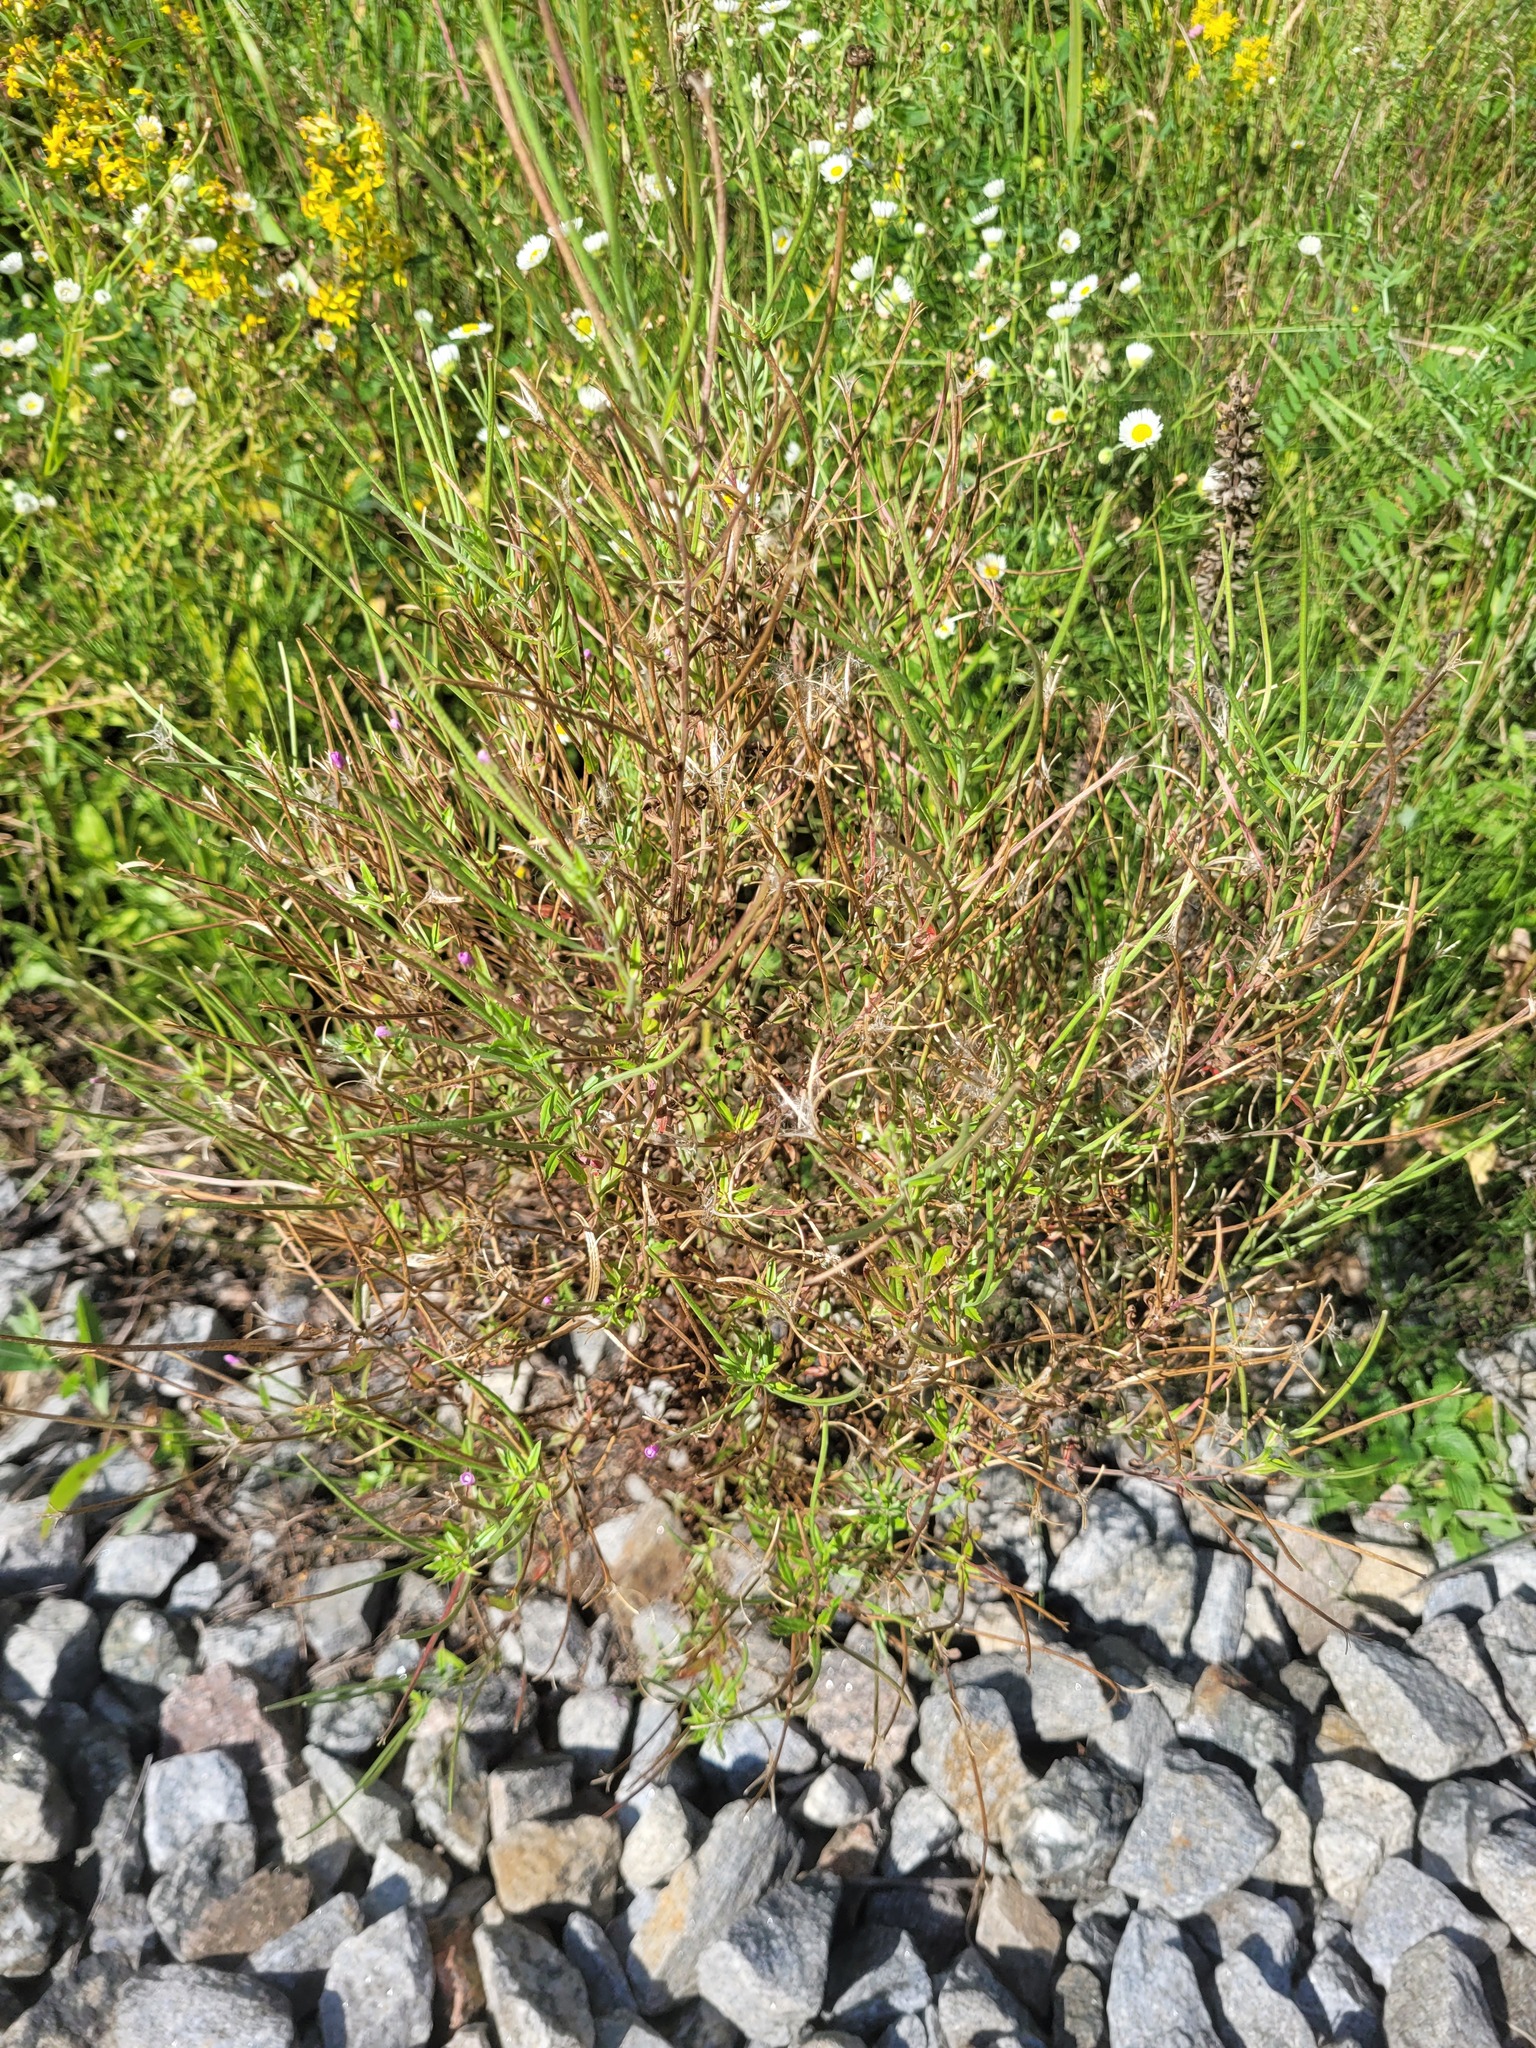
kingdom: Plantae
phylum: Tracheophyta
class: Magnoliopsida
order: Myrtales
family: Onagraceae
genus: Epilobium
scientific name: Epilobium lamyi
